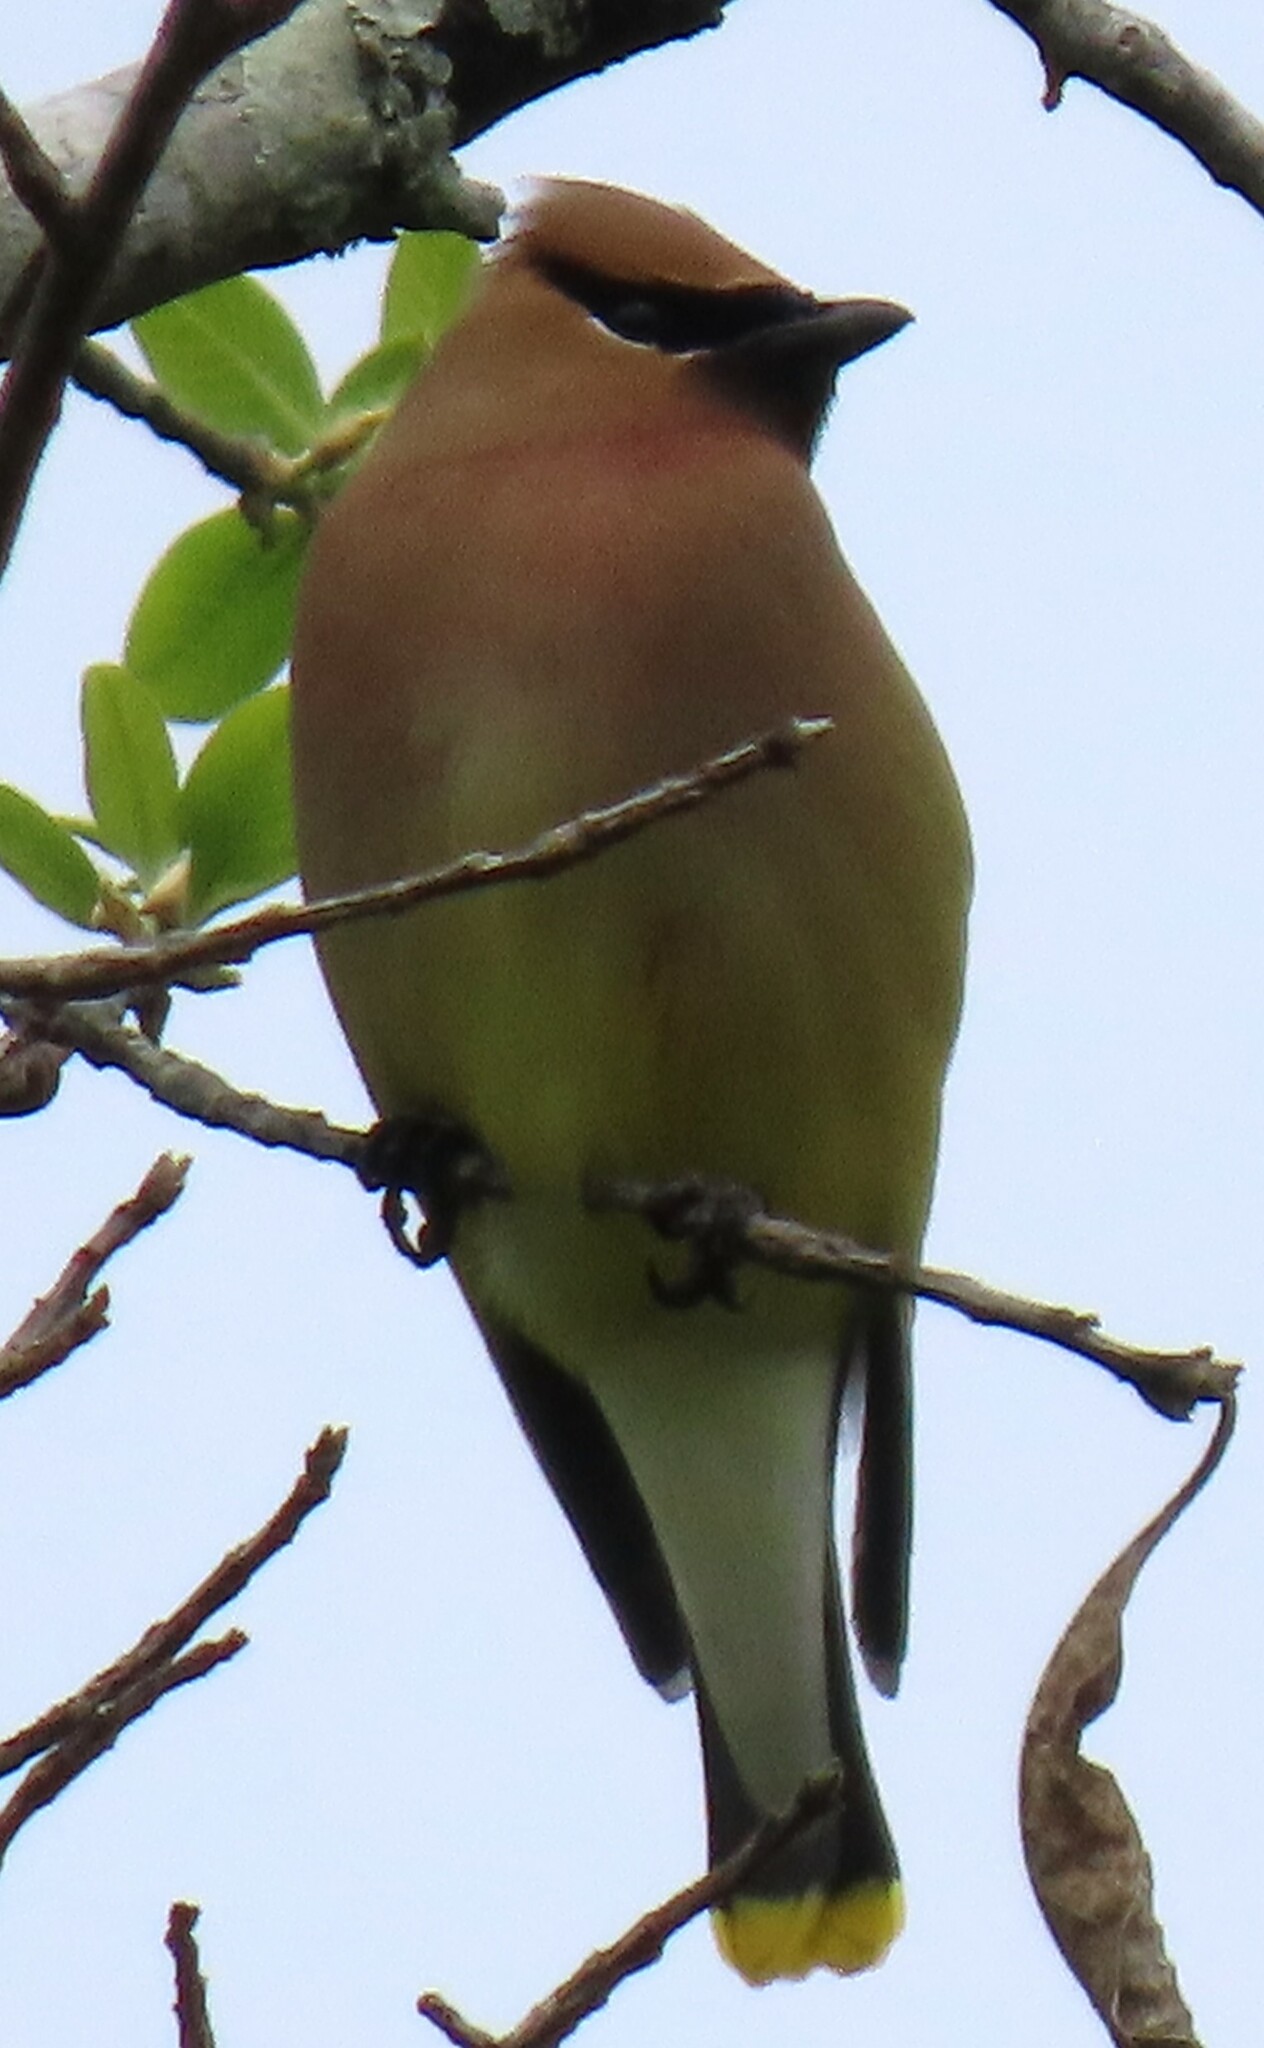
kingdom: Animalia
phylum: Chordata
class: Aves
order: Passeriformes
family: Bombycillidae
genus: Bombycilla
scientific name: Bombycilla cedrorum
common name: Cedar waxwing
